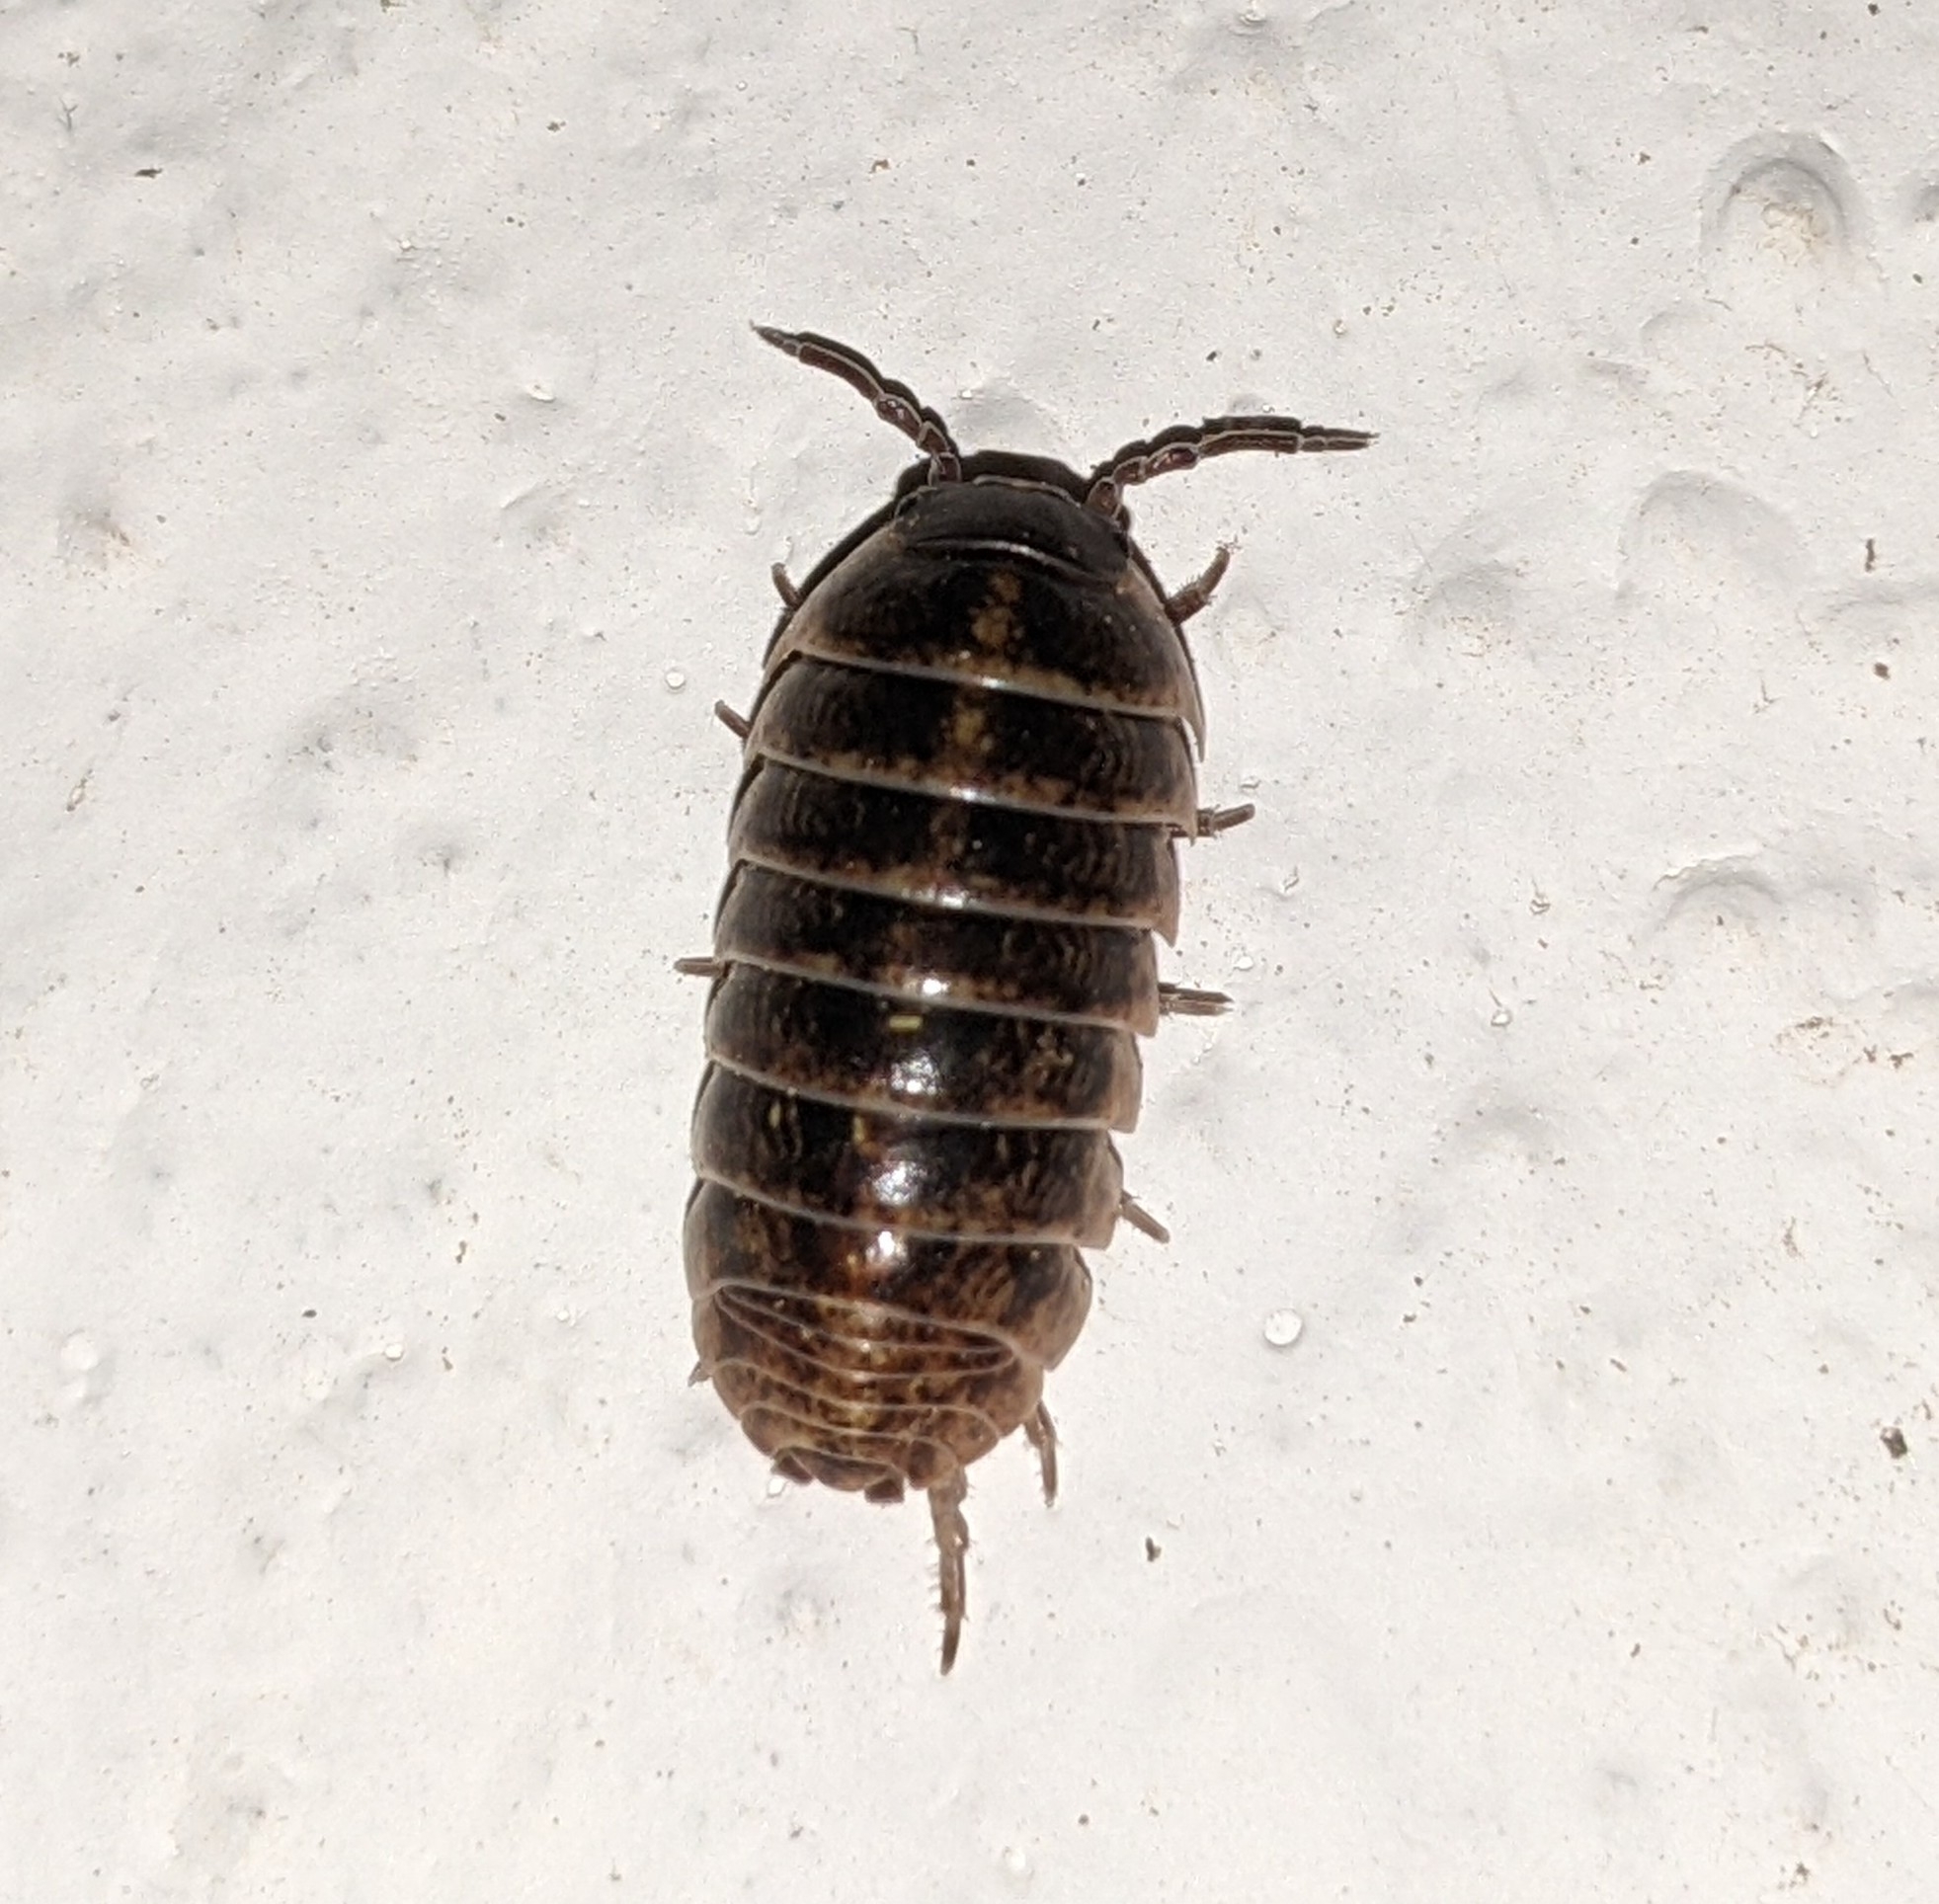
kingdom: Animalia
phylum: Arthropoda
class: Malacostraca
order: Isopoda
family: Armadillidiidae
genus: Armadillidium
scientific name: Armadillidium vulgare
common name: Common pill woodlouse
